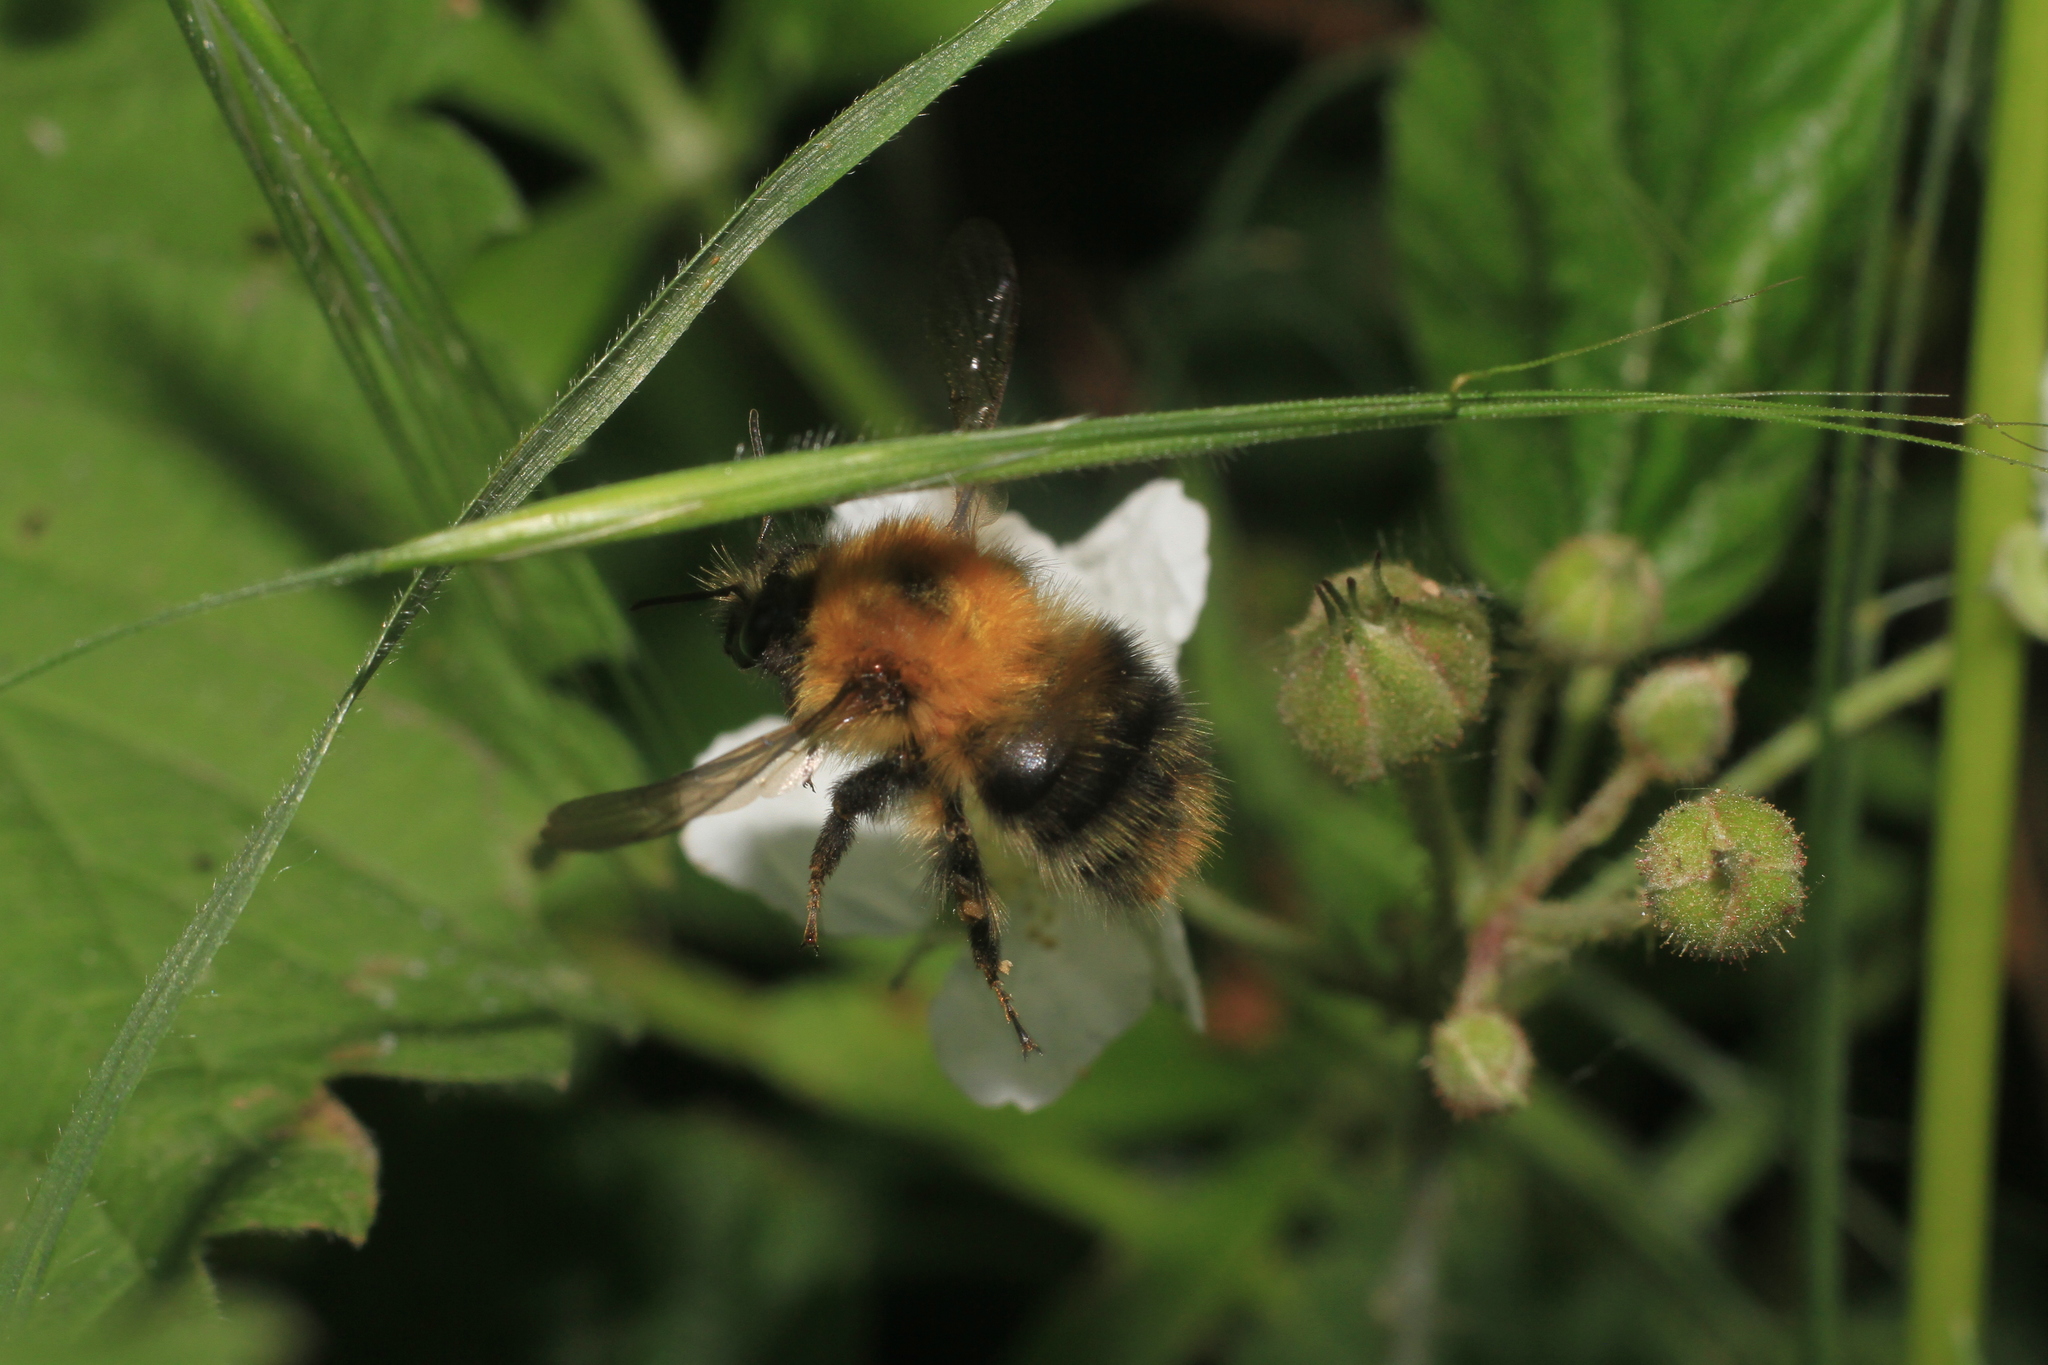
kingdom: Animalia
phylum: Arthropoda
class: Insecta
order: Hymenoptera
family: Apidae
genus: Bombus
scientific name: Bombus pascuorum
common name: Common carder bee
